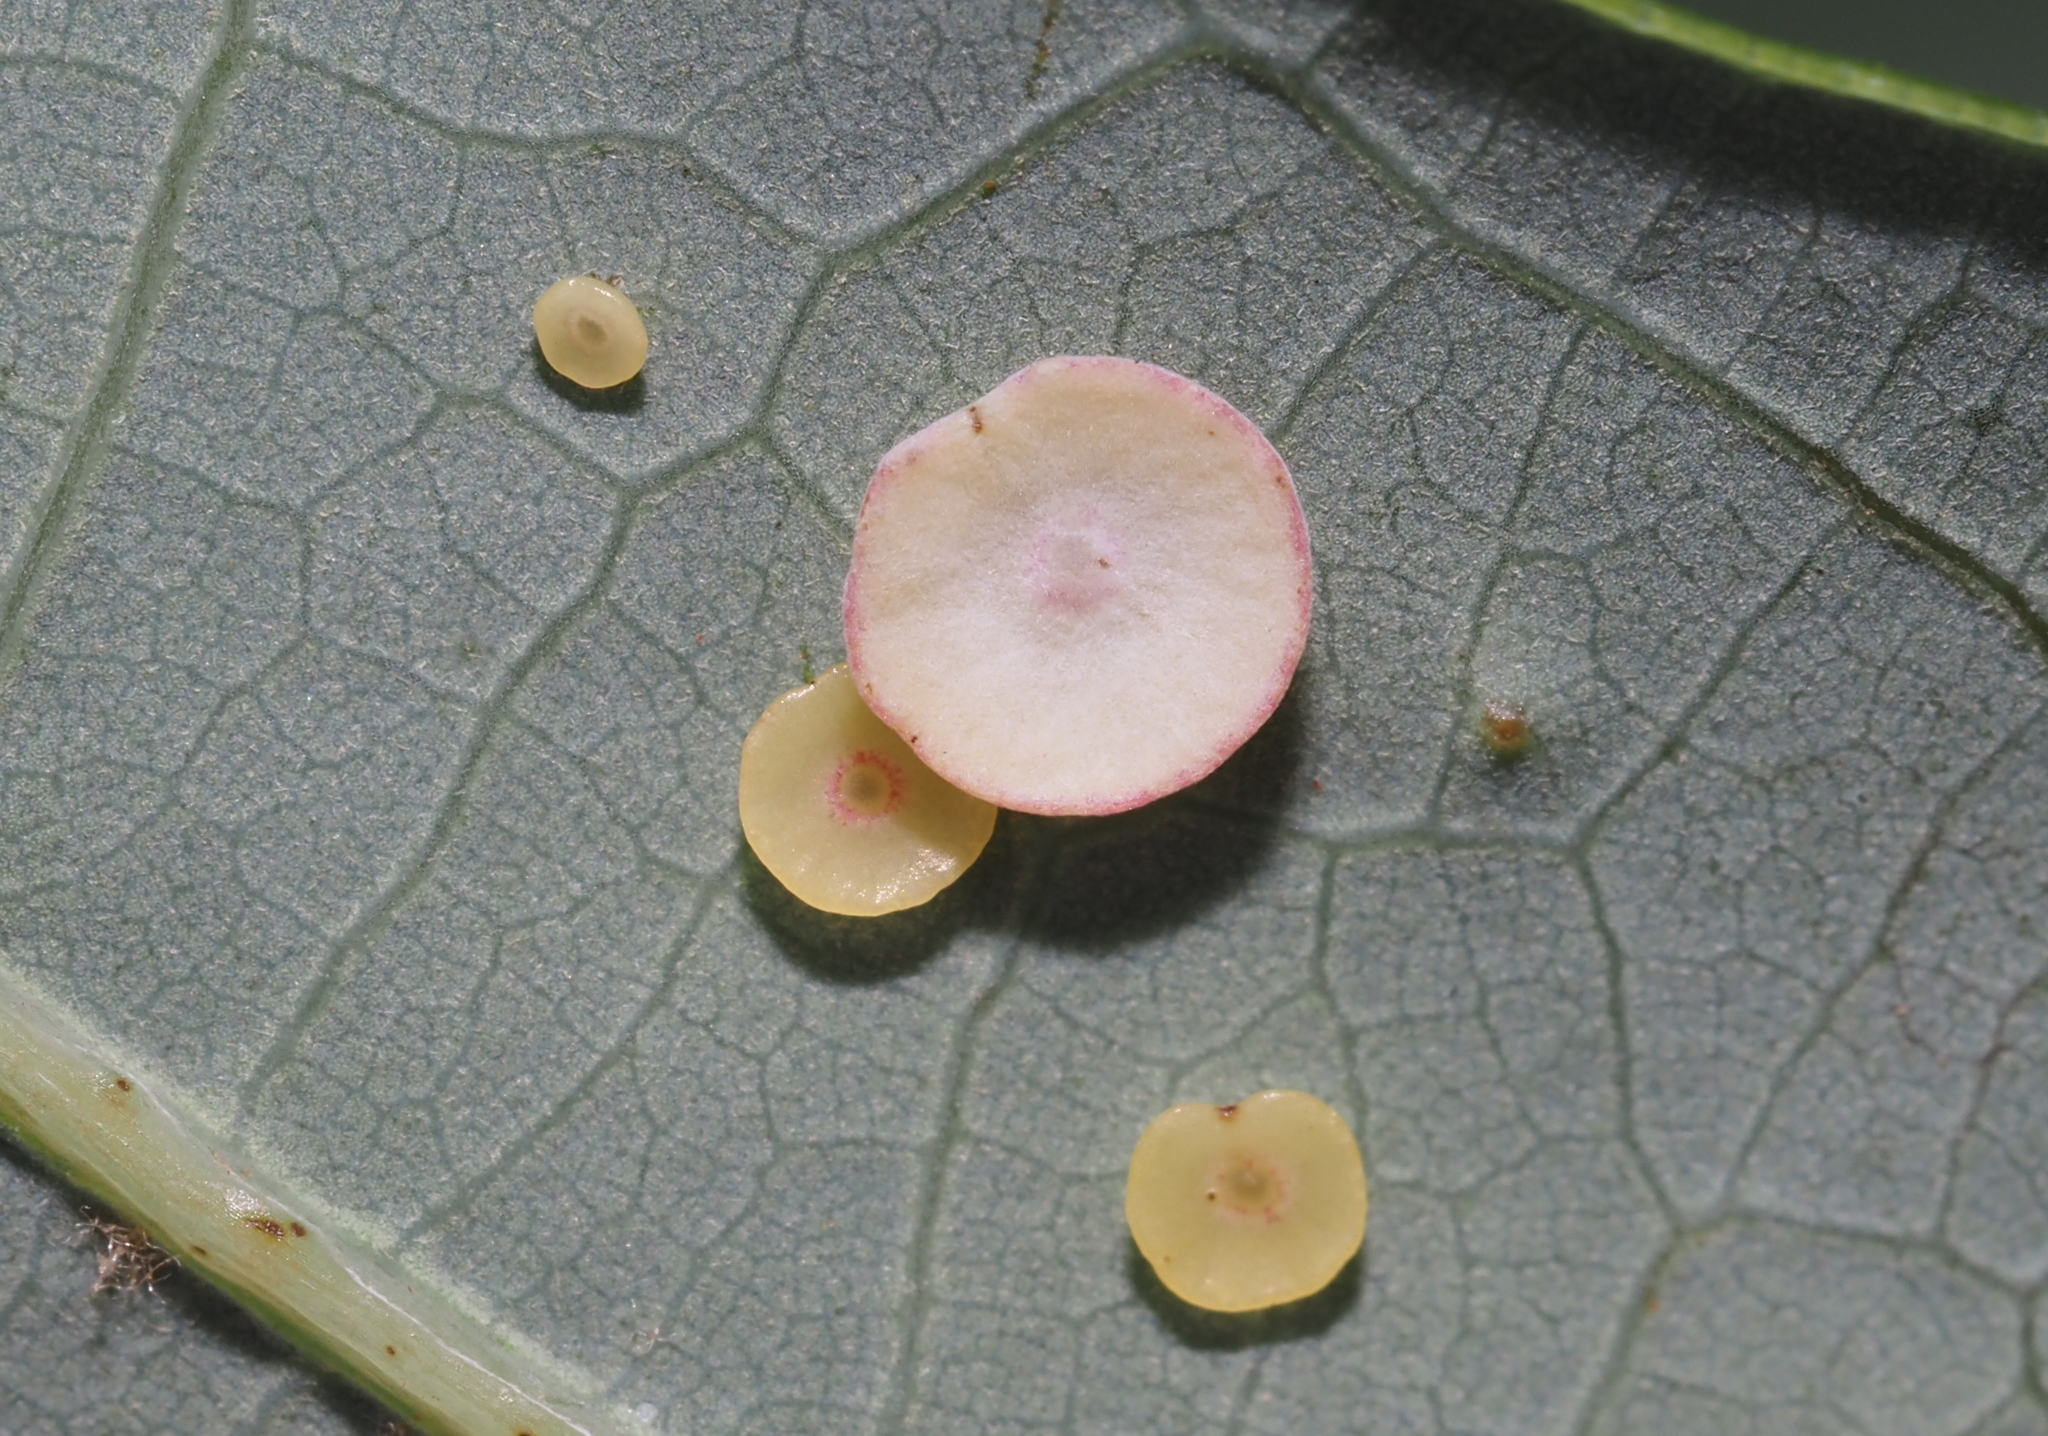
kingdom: Animalia
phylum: Arthropoda
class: Insecta
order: Hymenoptera
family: Cynipidae
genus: Phylloteras
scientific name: Phylloteras poculum
